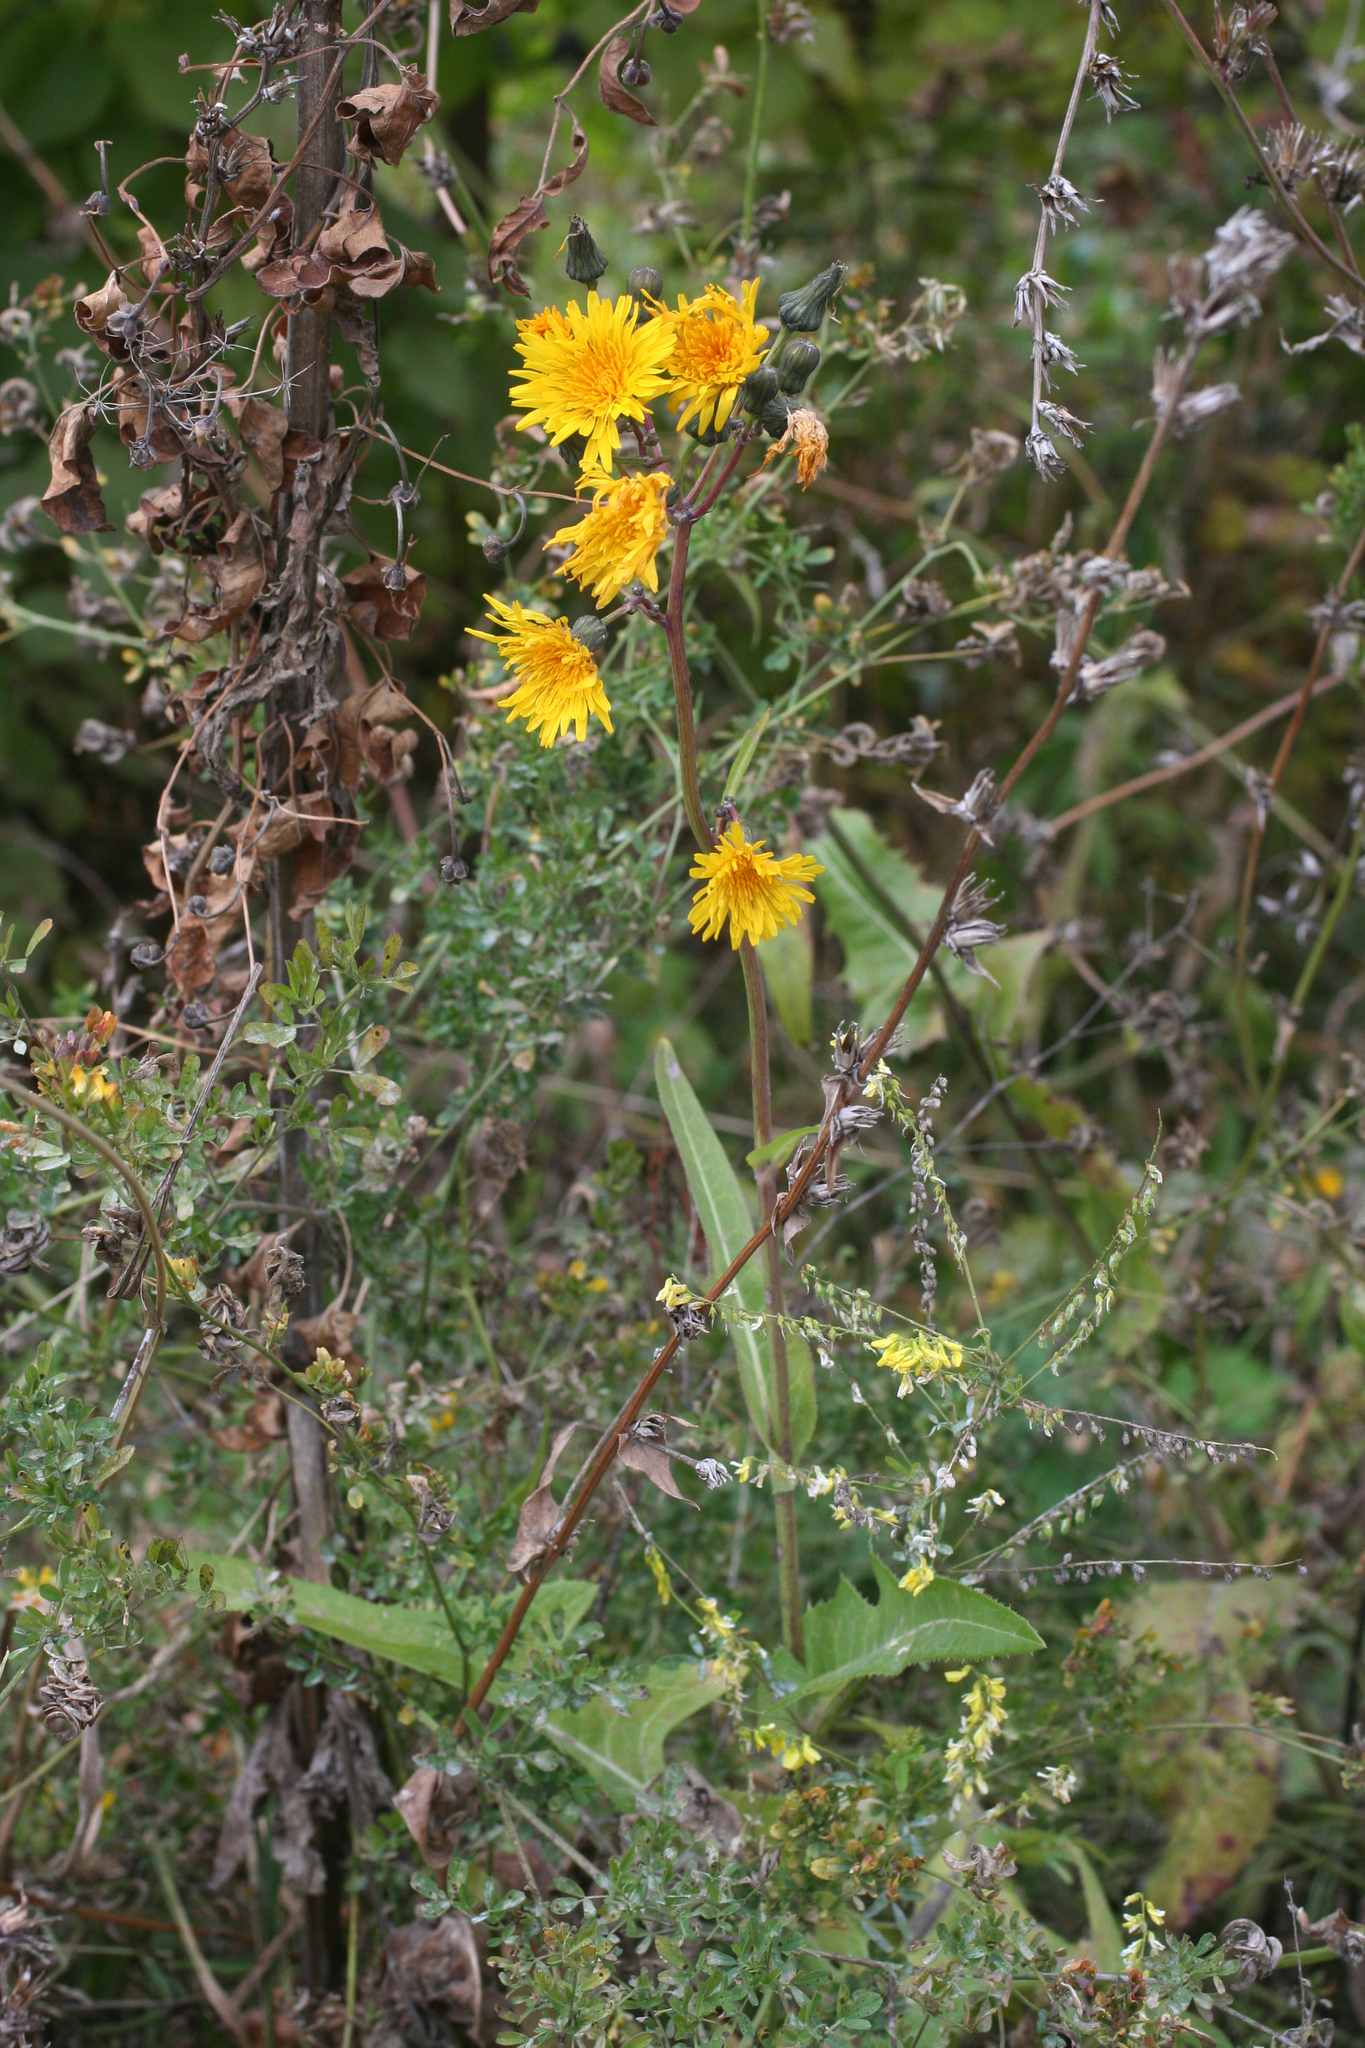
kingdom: Plantae
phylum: Tracheophyta
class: Magnoliopsida
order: Asterales
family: Asteraceae
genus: Sonchus
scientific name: Sonchus arvensis
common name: Perennial sow-thistle
